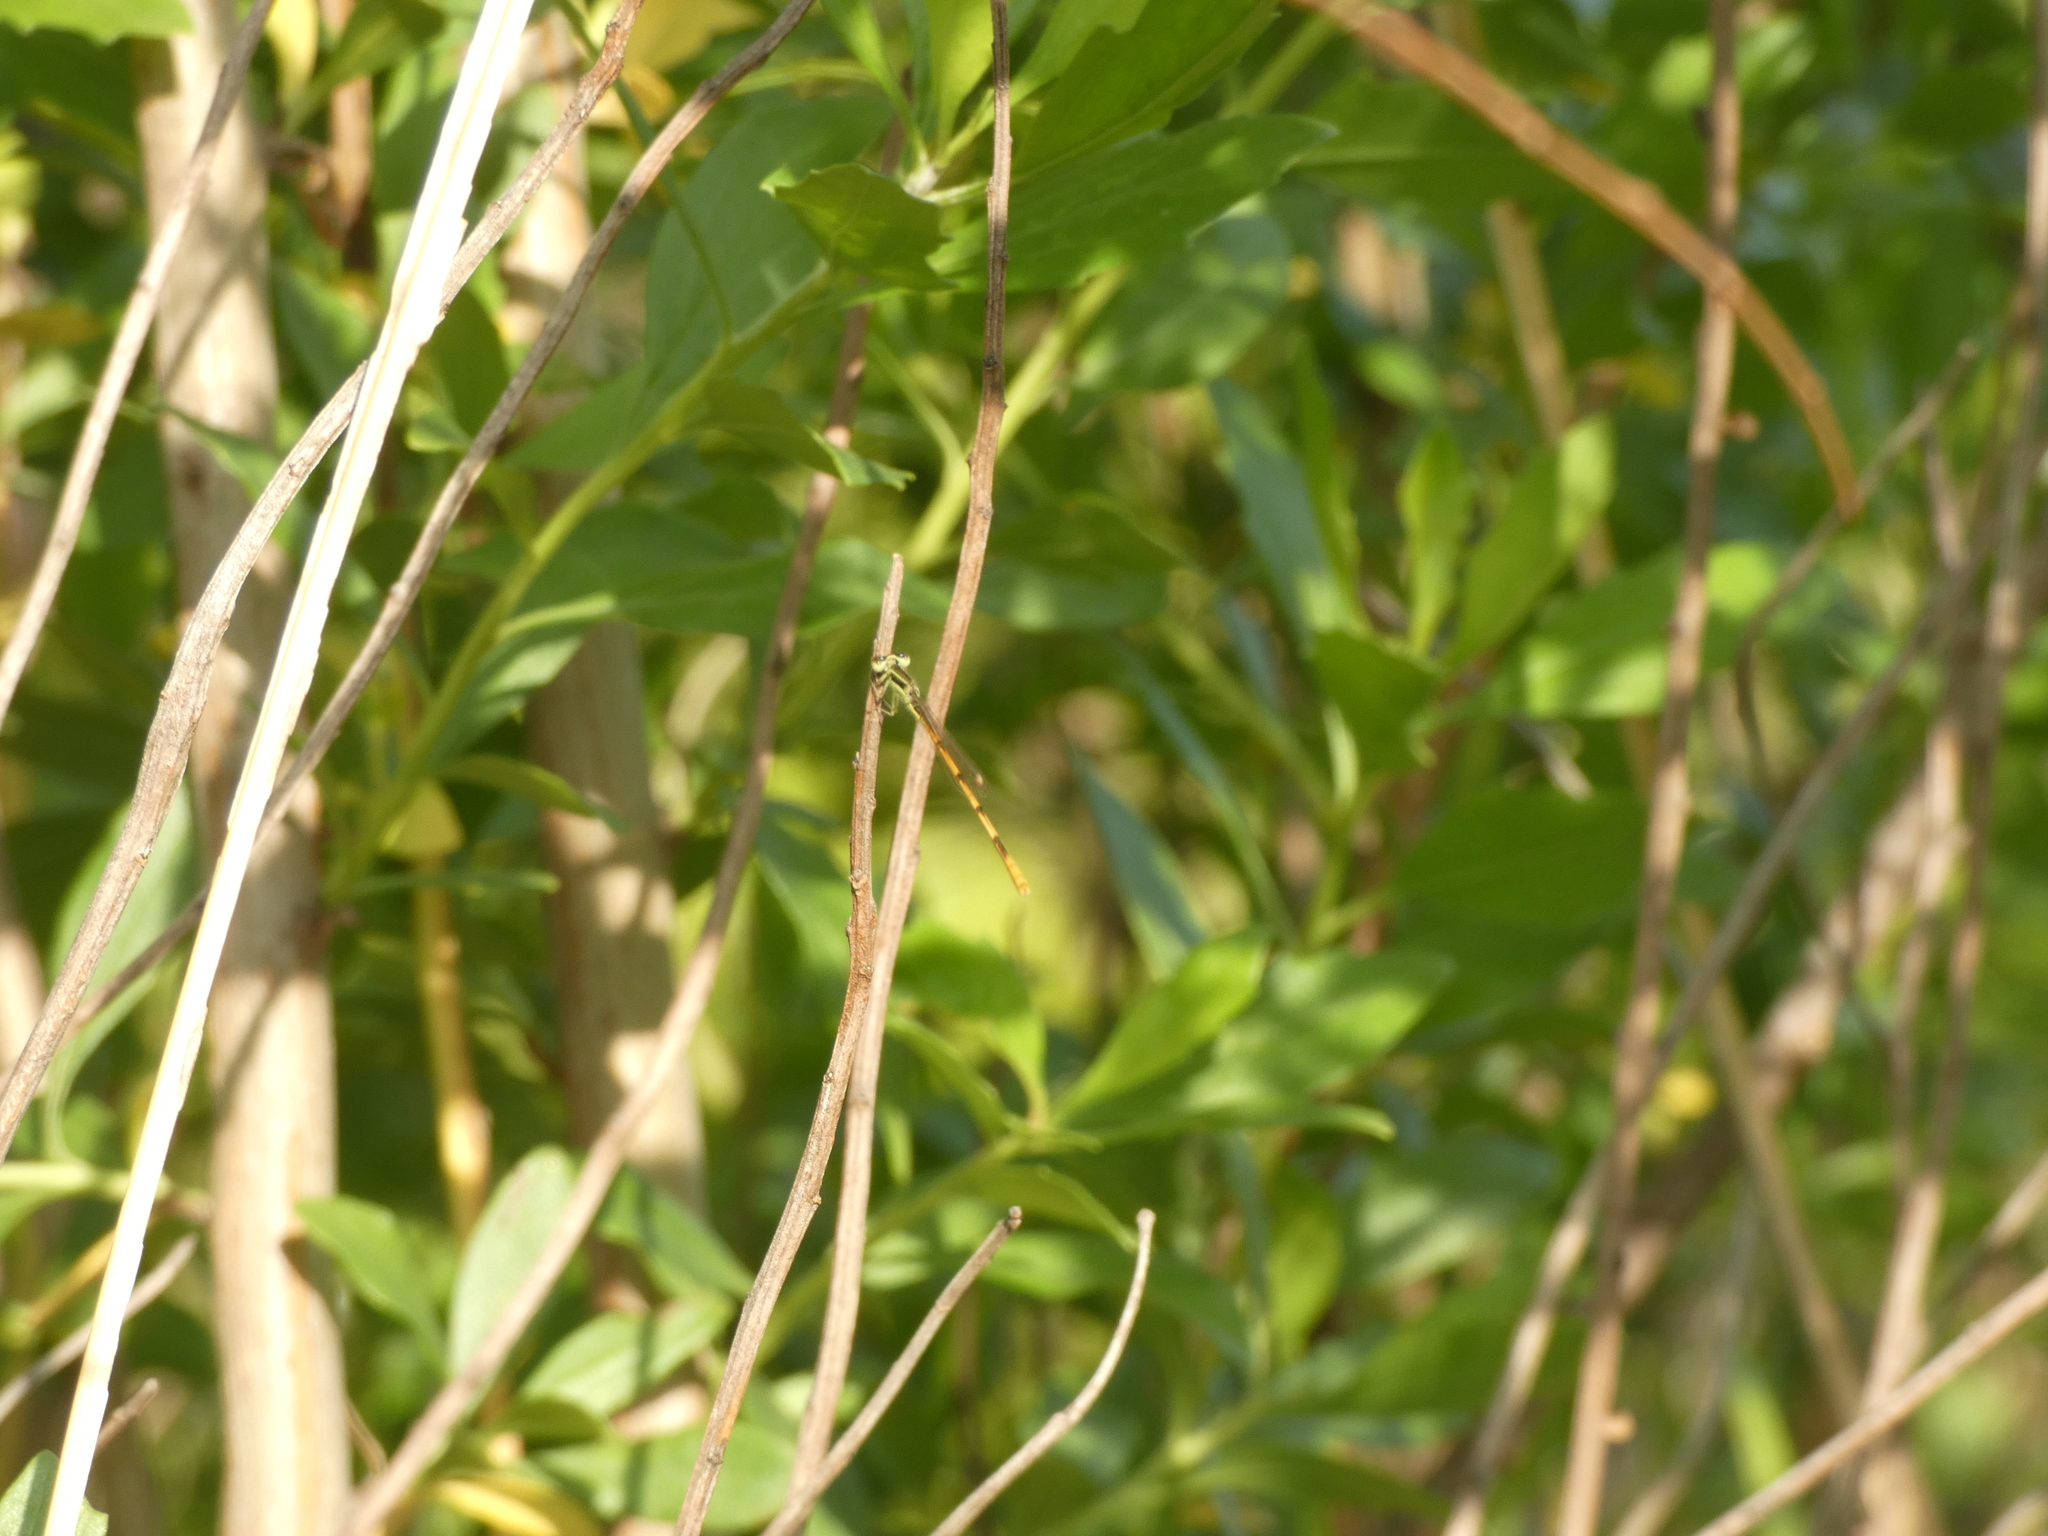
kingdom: Animalia
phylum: Arthropoda
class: Insecta
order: Odonata
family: Coenagrionidae
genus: Ischnura
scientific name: Ischnura hastata
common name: Citrine forktail
